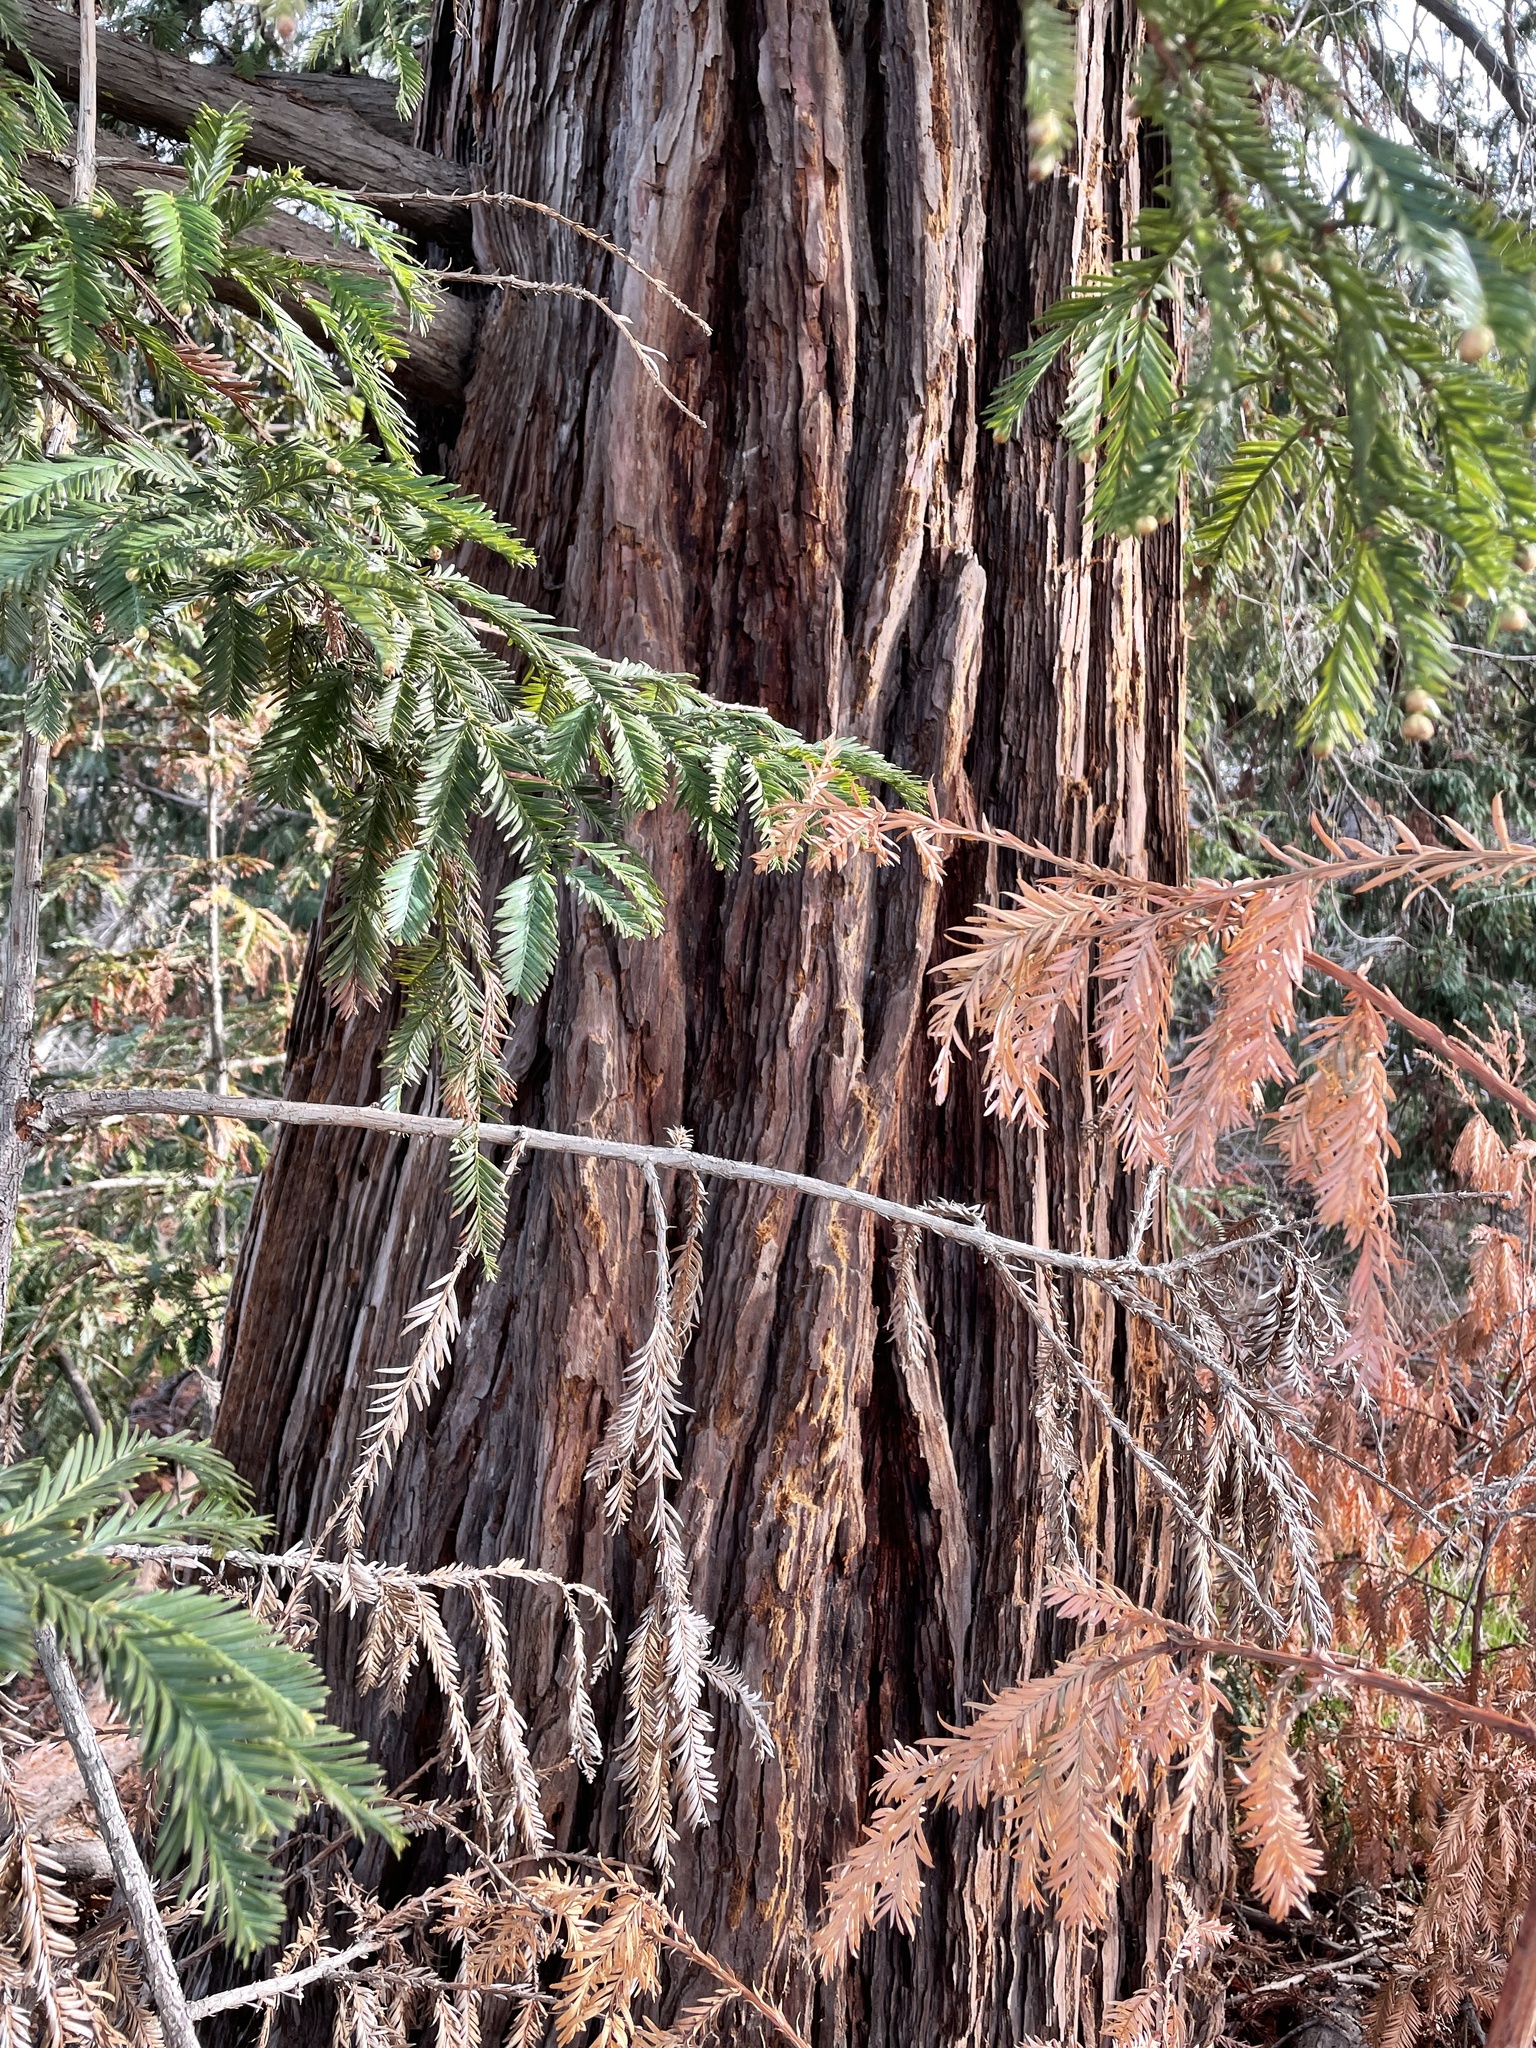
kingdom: Plantae
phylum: Tracheophyta
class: Pinopsida
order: Pinales
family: Cupressaceae
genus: Sequoia
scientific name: Sequoia sempervirens
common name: Coast redwood
